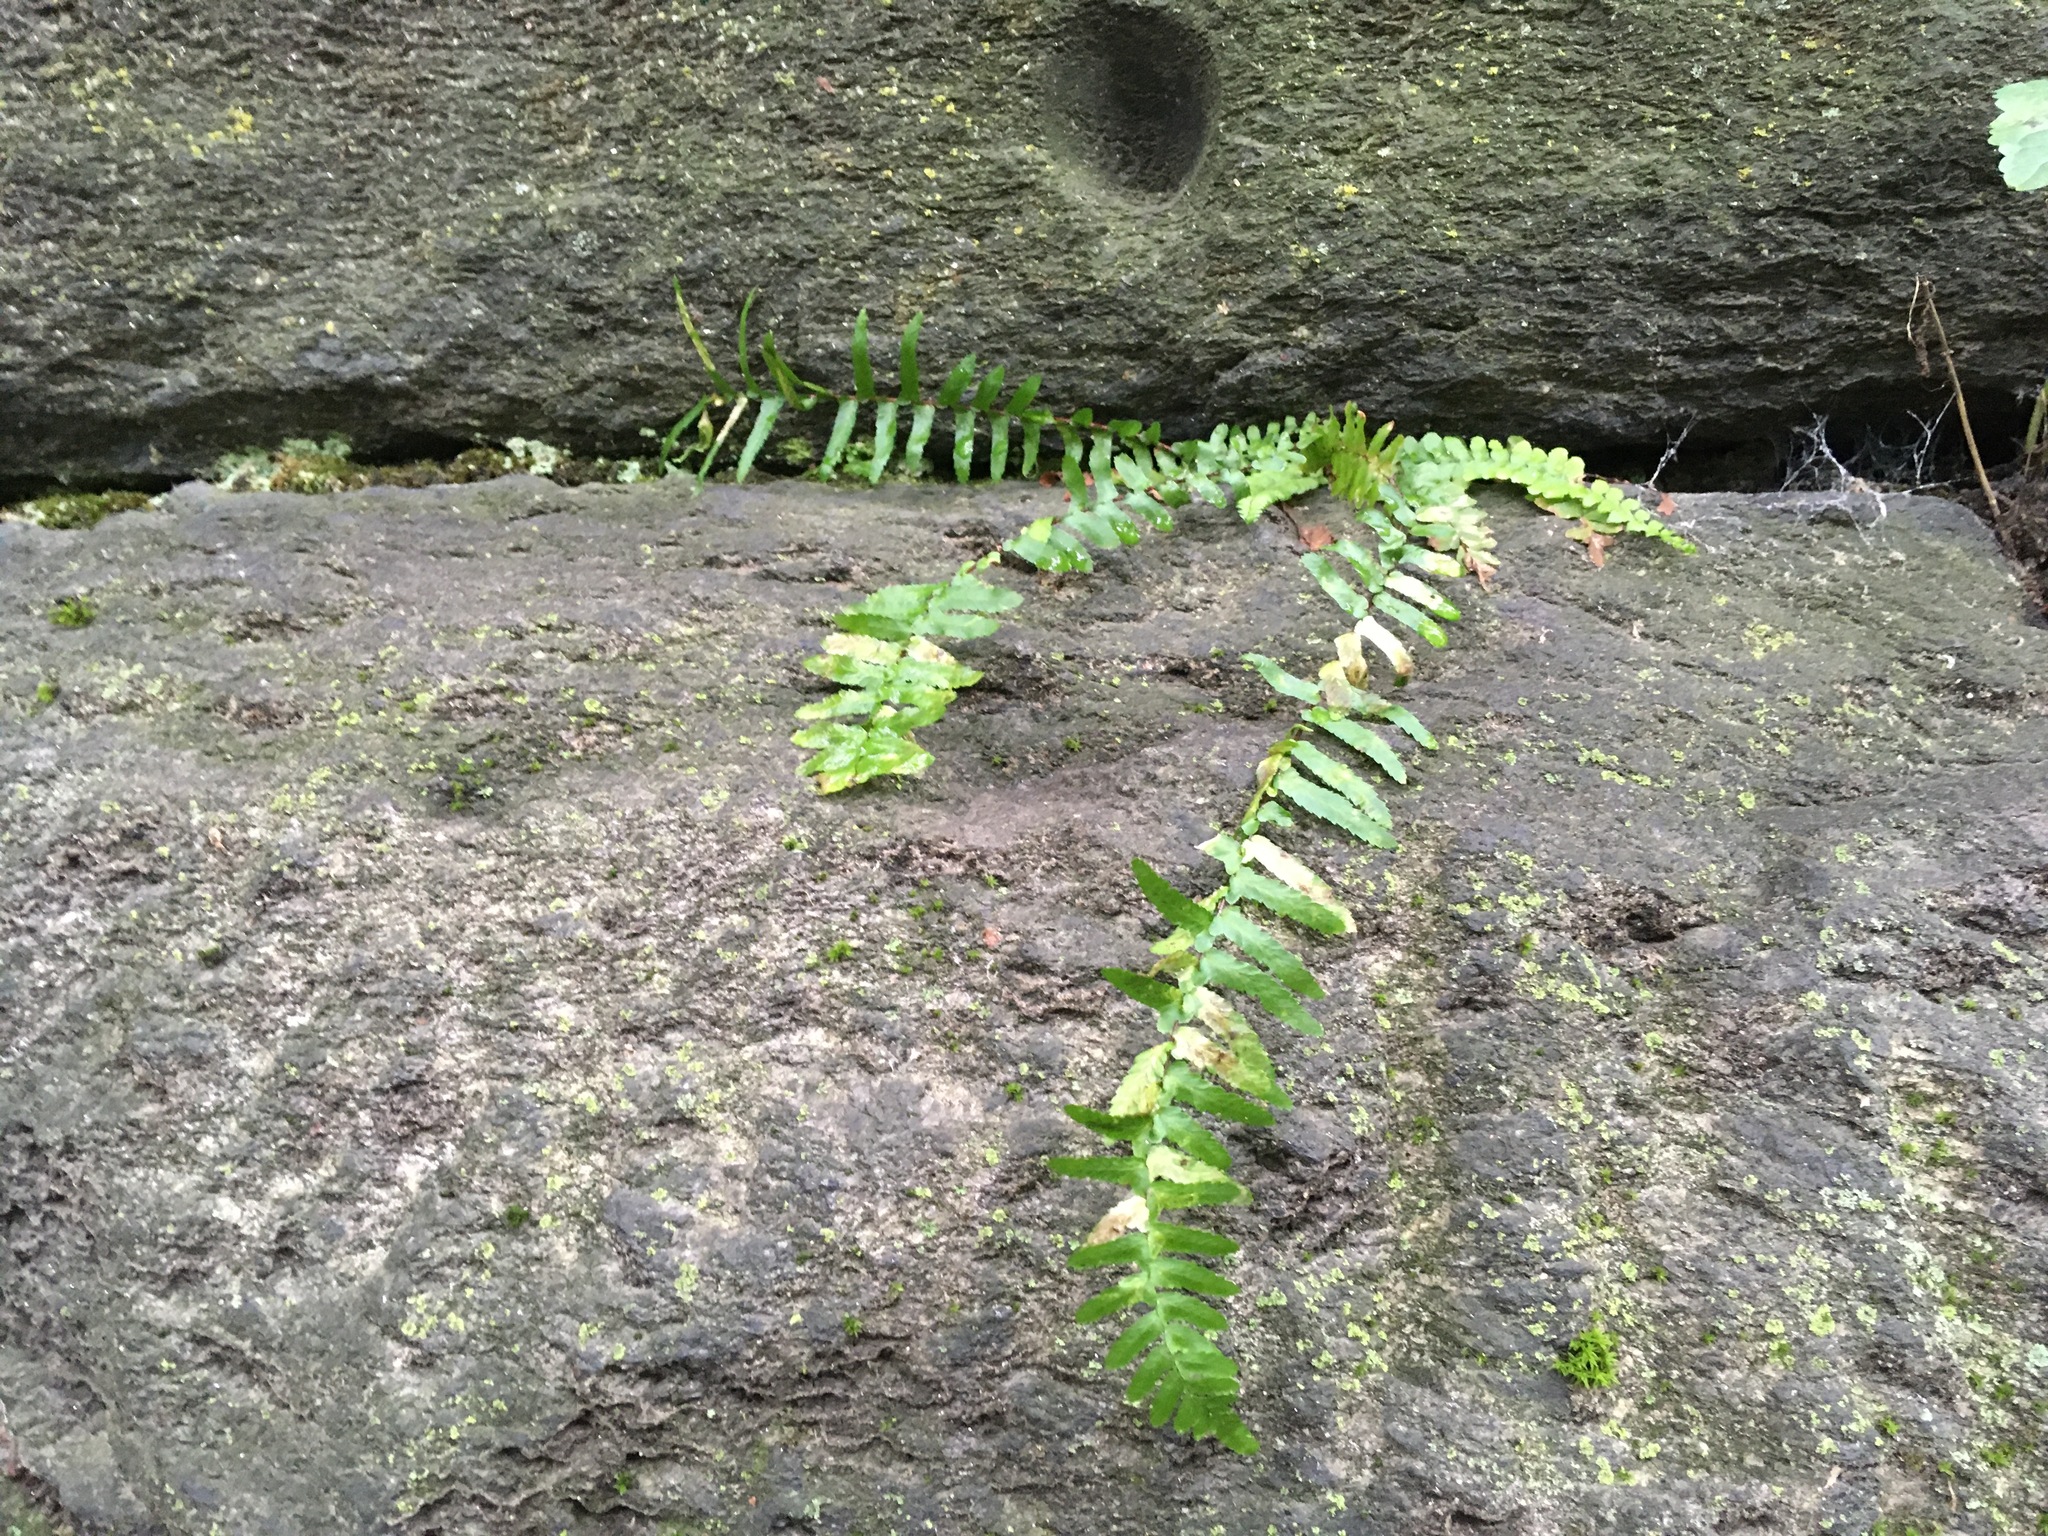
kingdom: Plantae
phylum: Tracheophyta
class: Polypodiopsida
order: Polypodiales
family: Aspleniaceae
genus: Asplenium
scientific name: Asplenium platyneuron
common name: Ebony spleenwort
